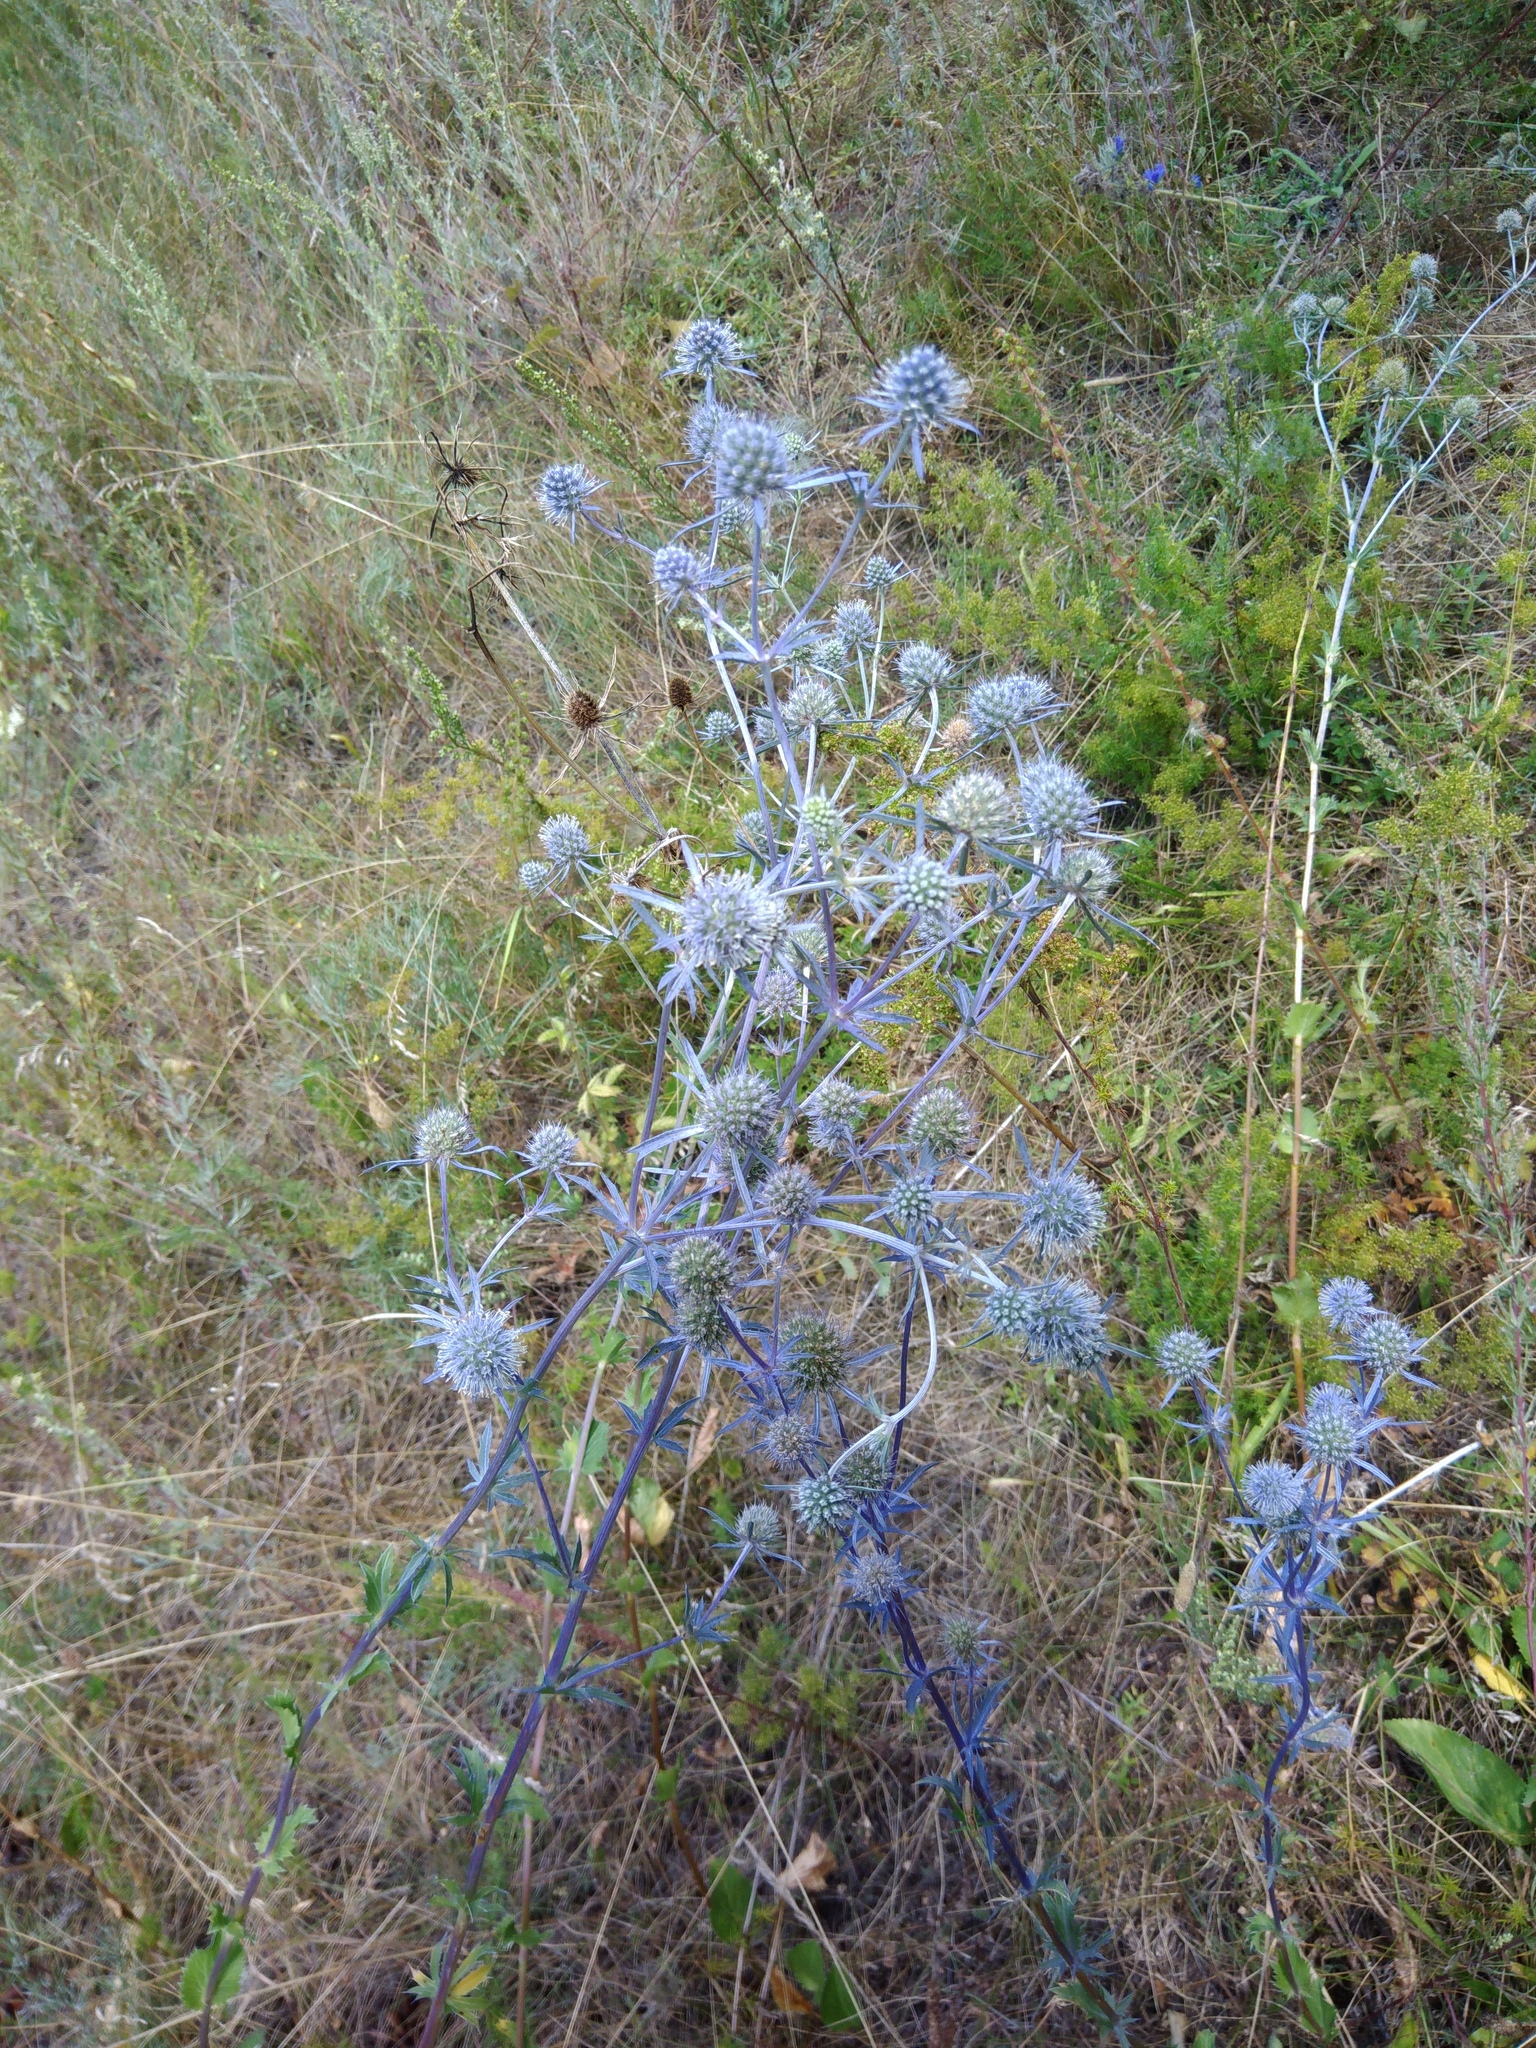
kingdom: Plantae
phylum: Tracheophyta
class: Magnoliopsida
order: Apiales
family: Apiaceae
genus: Eryngium
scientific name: Eryngium planum
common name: Blue eryngo
